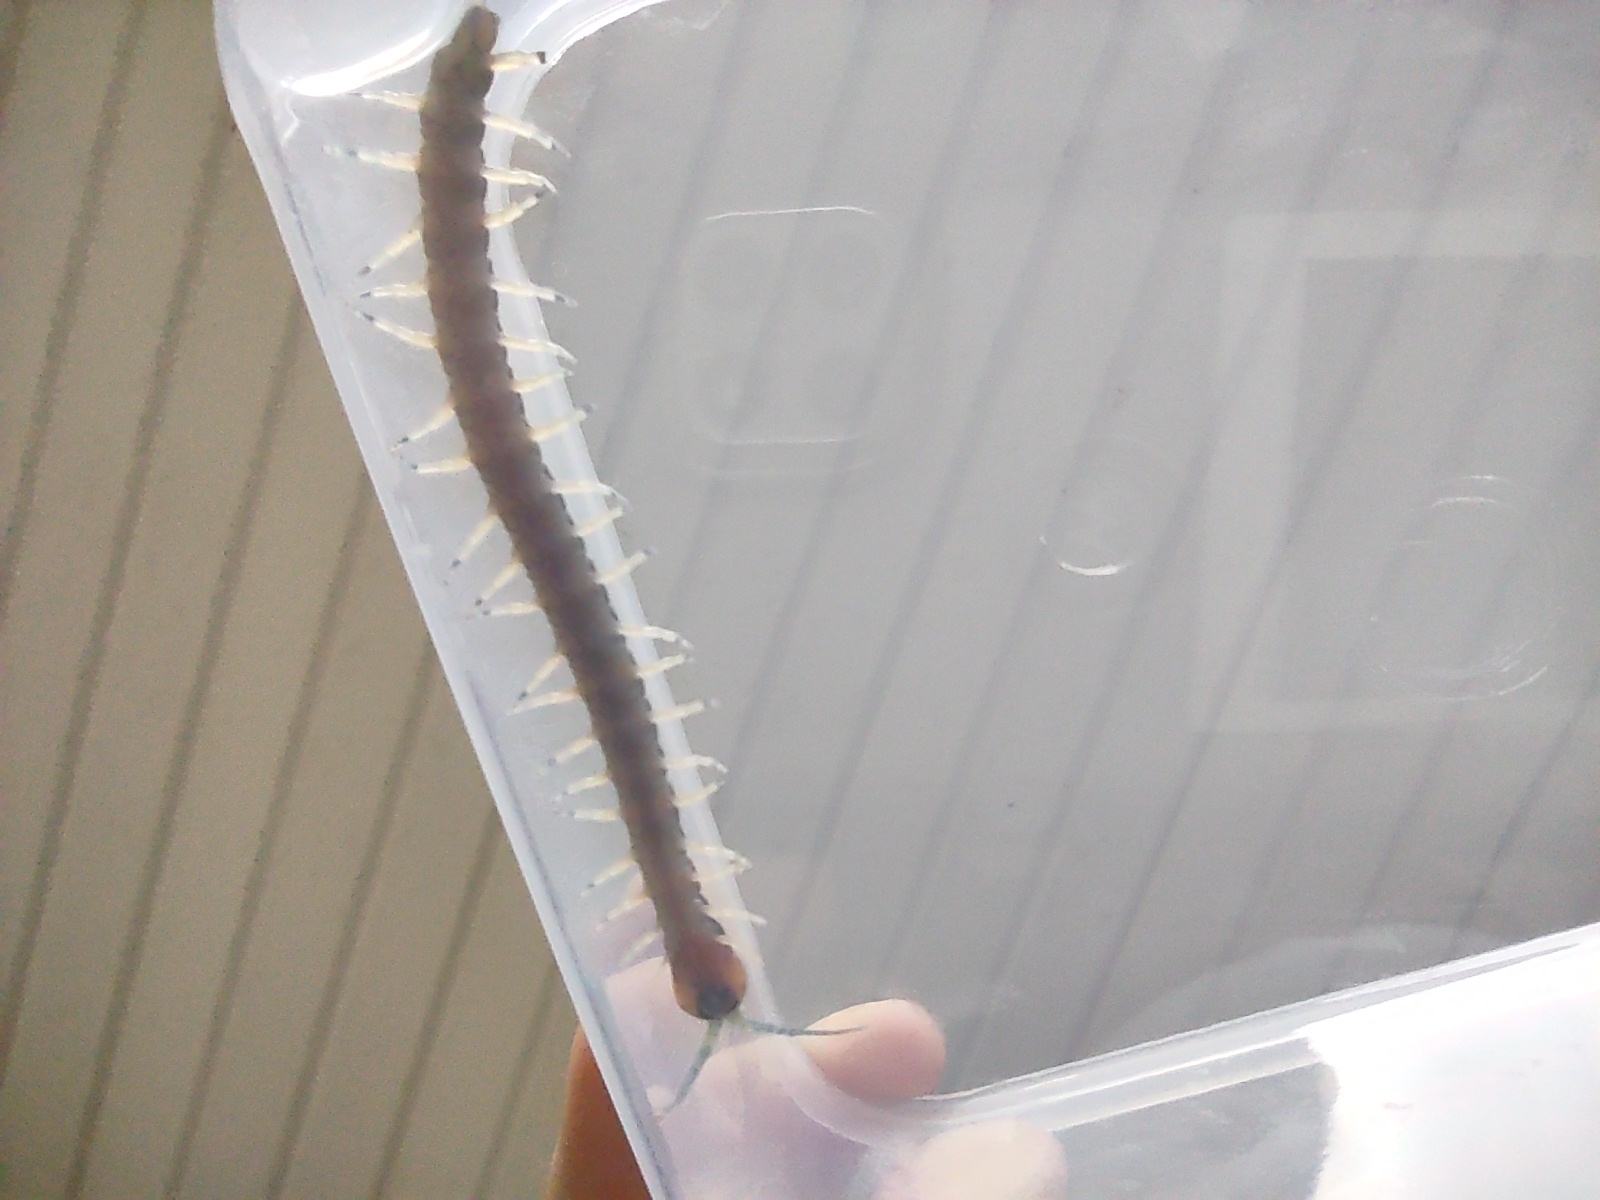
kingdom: Animalia
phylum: Arthropoda
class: Chilopoda
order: Scolopendromorpha
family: Scolopendridae
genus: Hemiscolopendra
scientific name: Hemiscolopendra marginata
